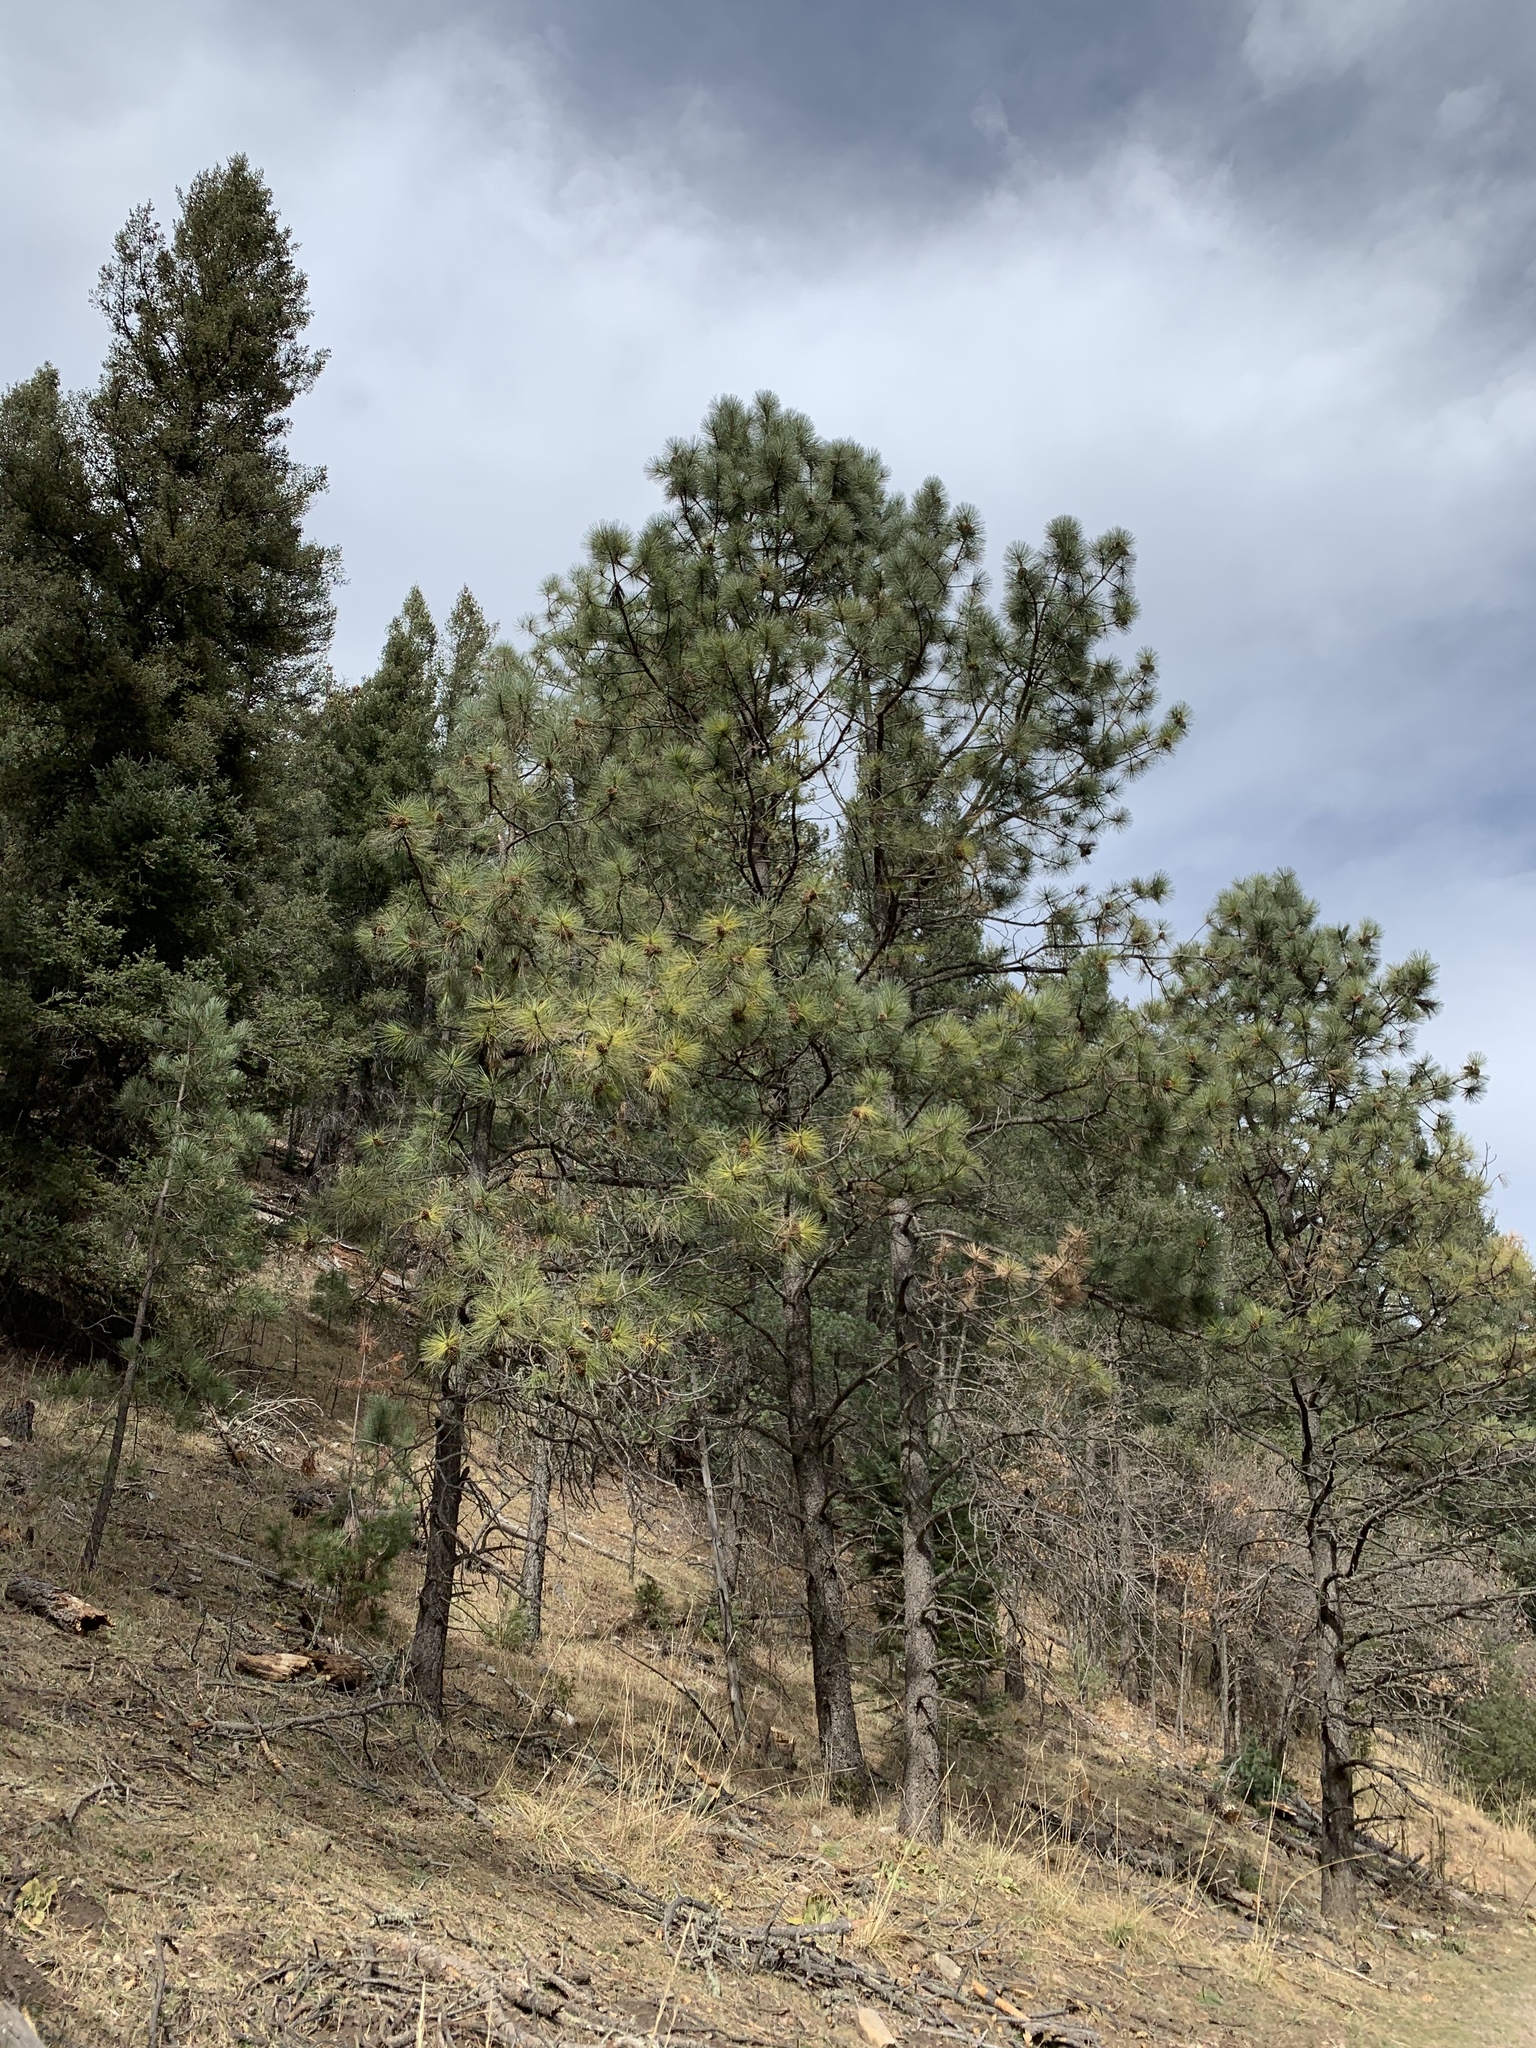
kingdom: Plantae
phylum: Tracheophyta
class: Pinopsida
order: Pinales
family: Pinaceae
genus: Pinus
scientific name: Pinus ponderosa
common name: Western yellow-pine
